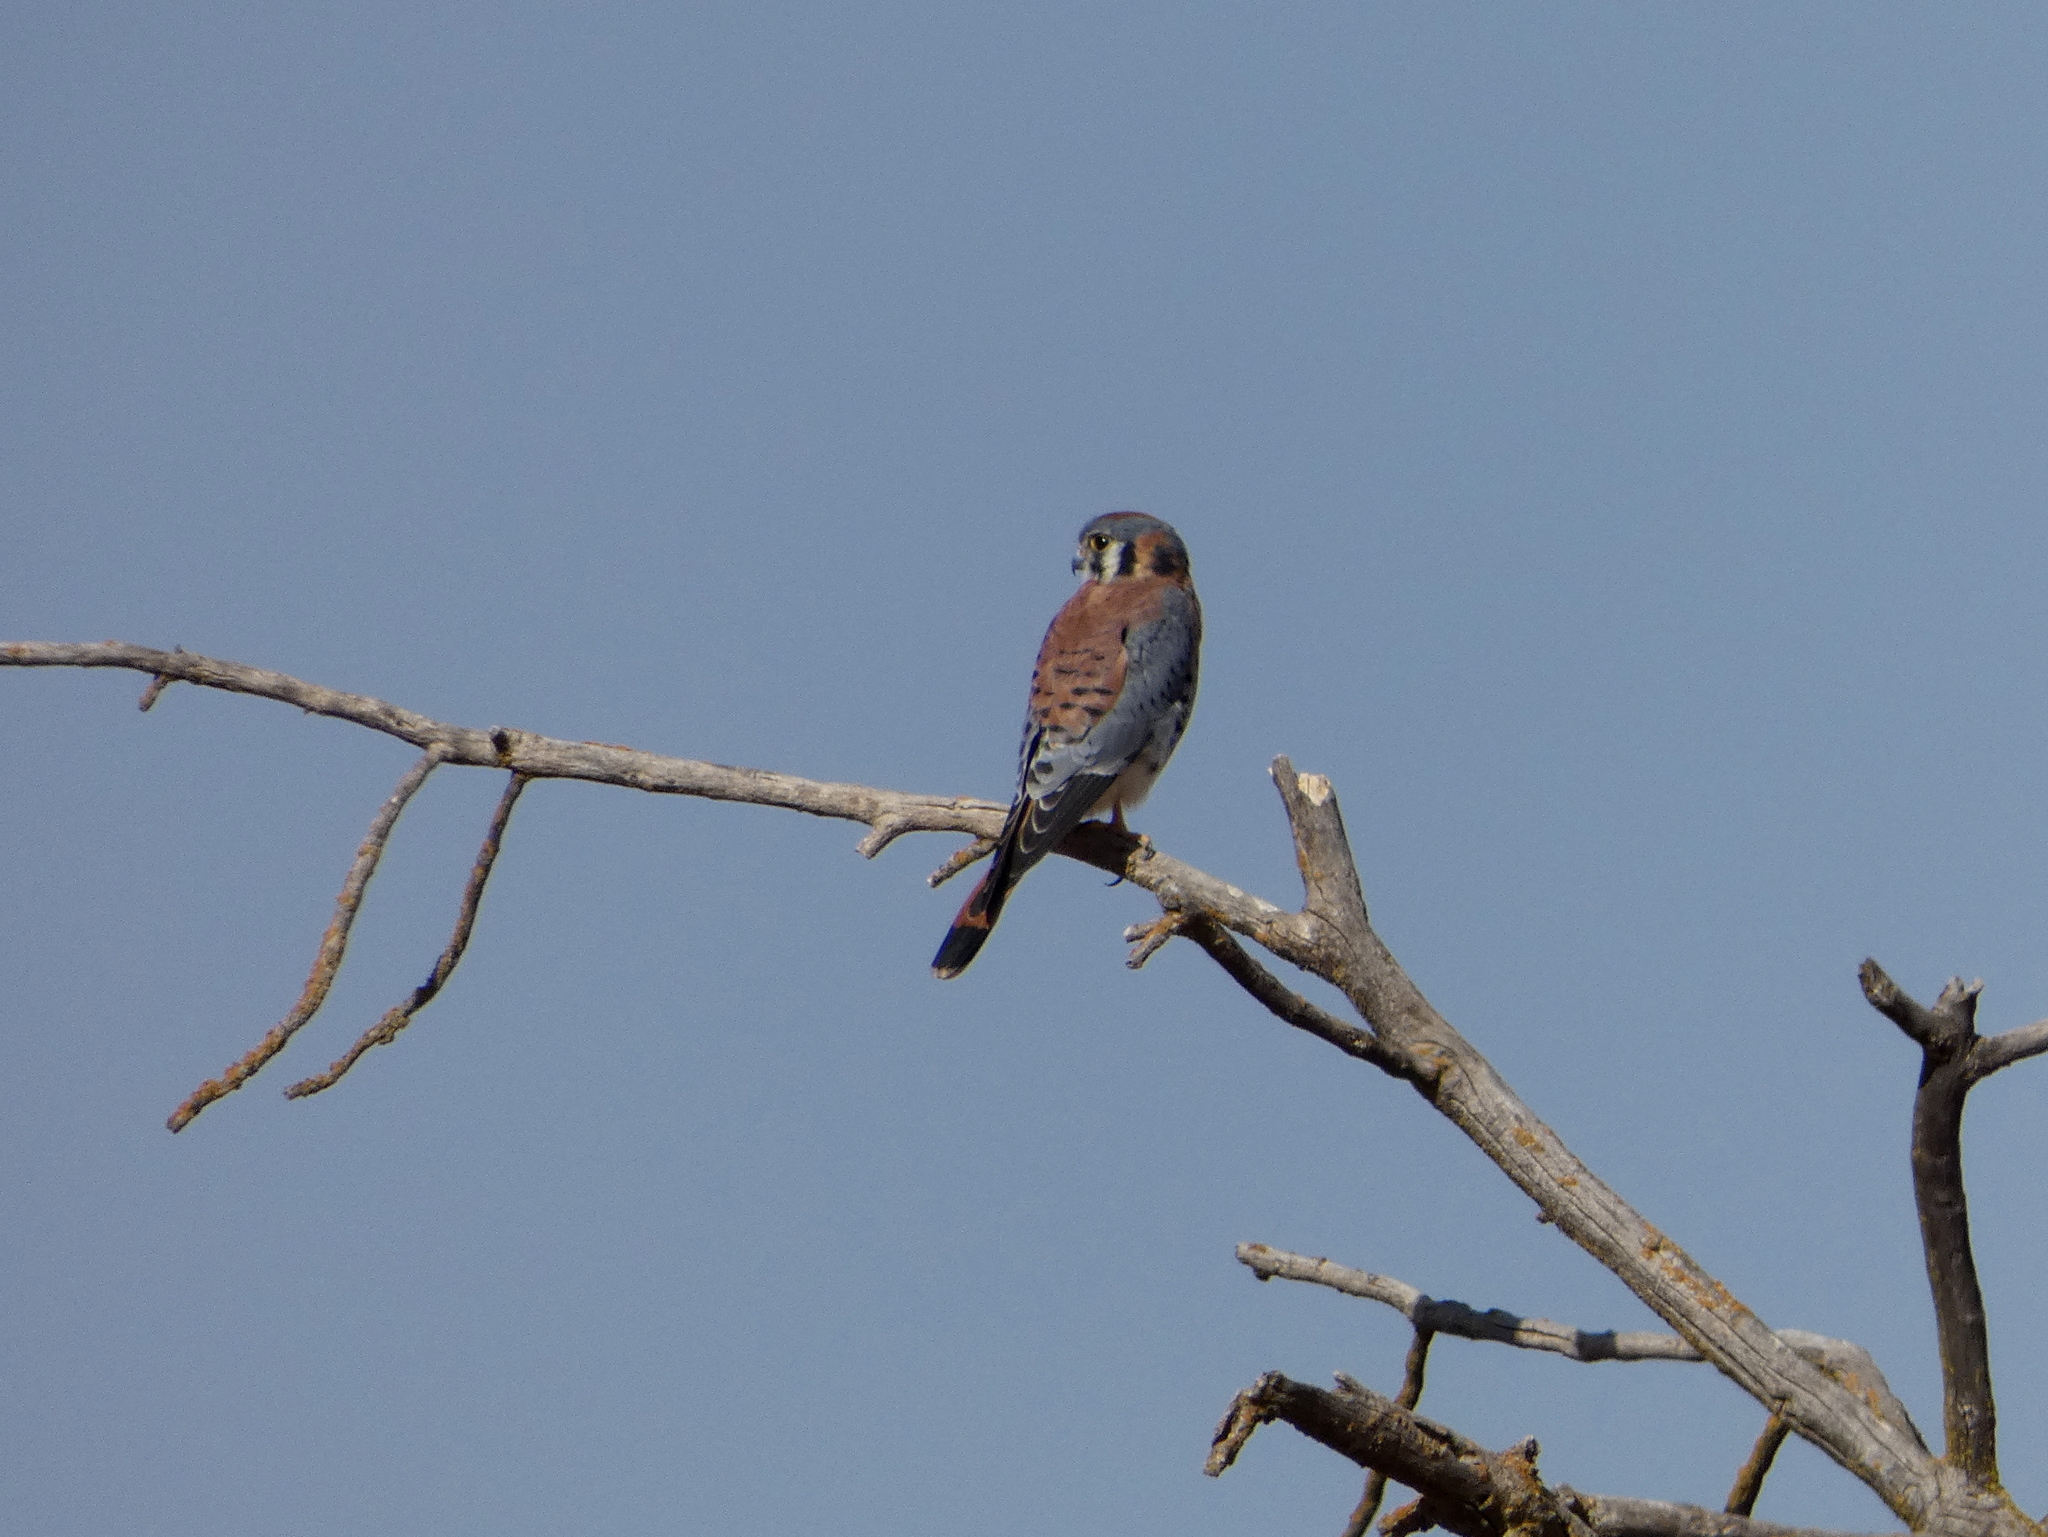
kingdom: Animalia
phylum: Chordata
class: Aves
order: Falconiformes
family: Falconidae
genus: Falco
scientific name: Falco sparverius
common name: American kestrel
